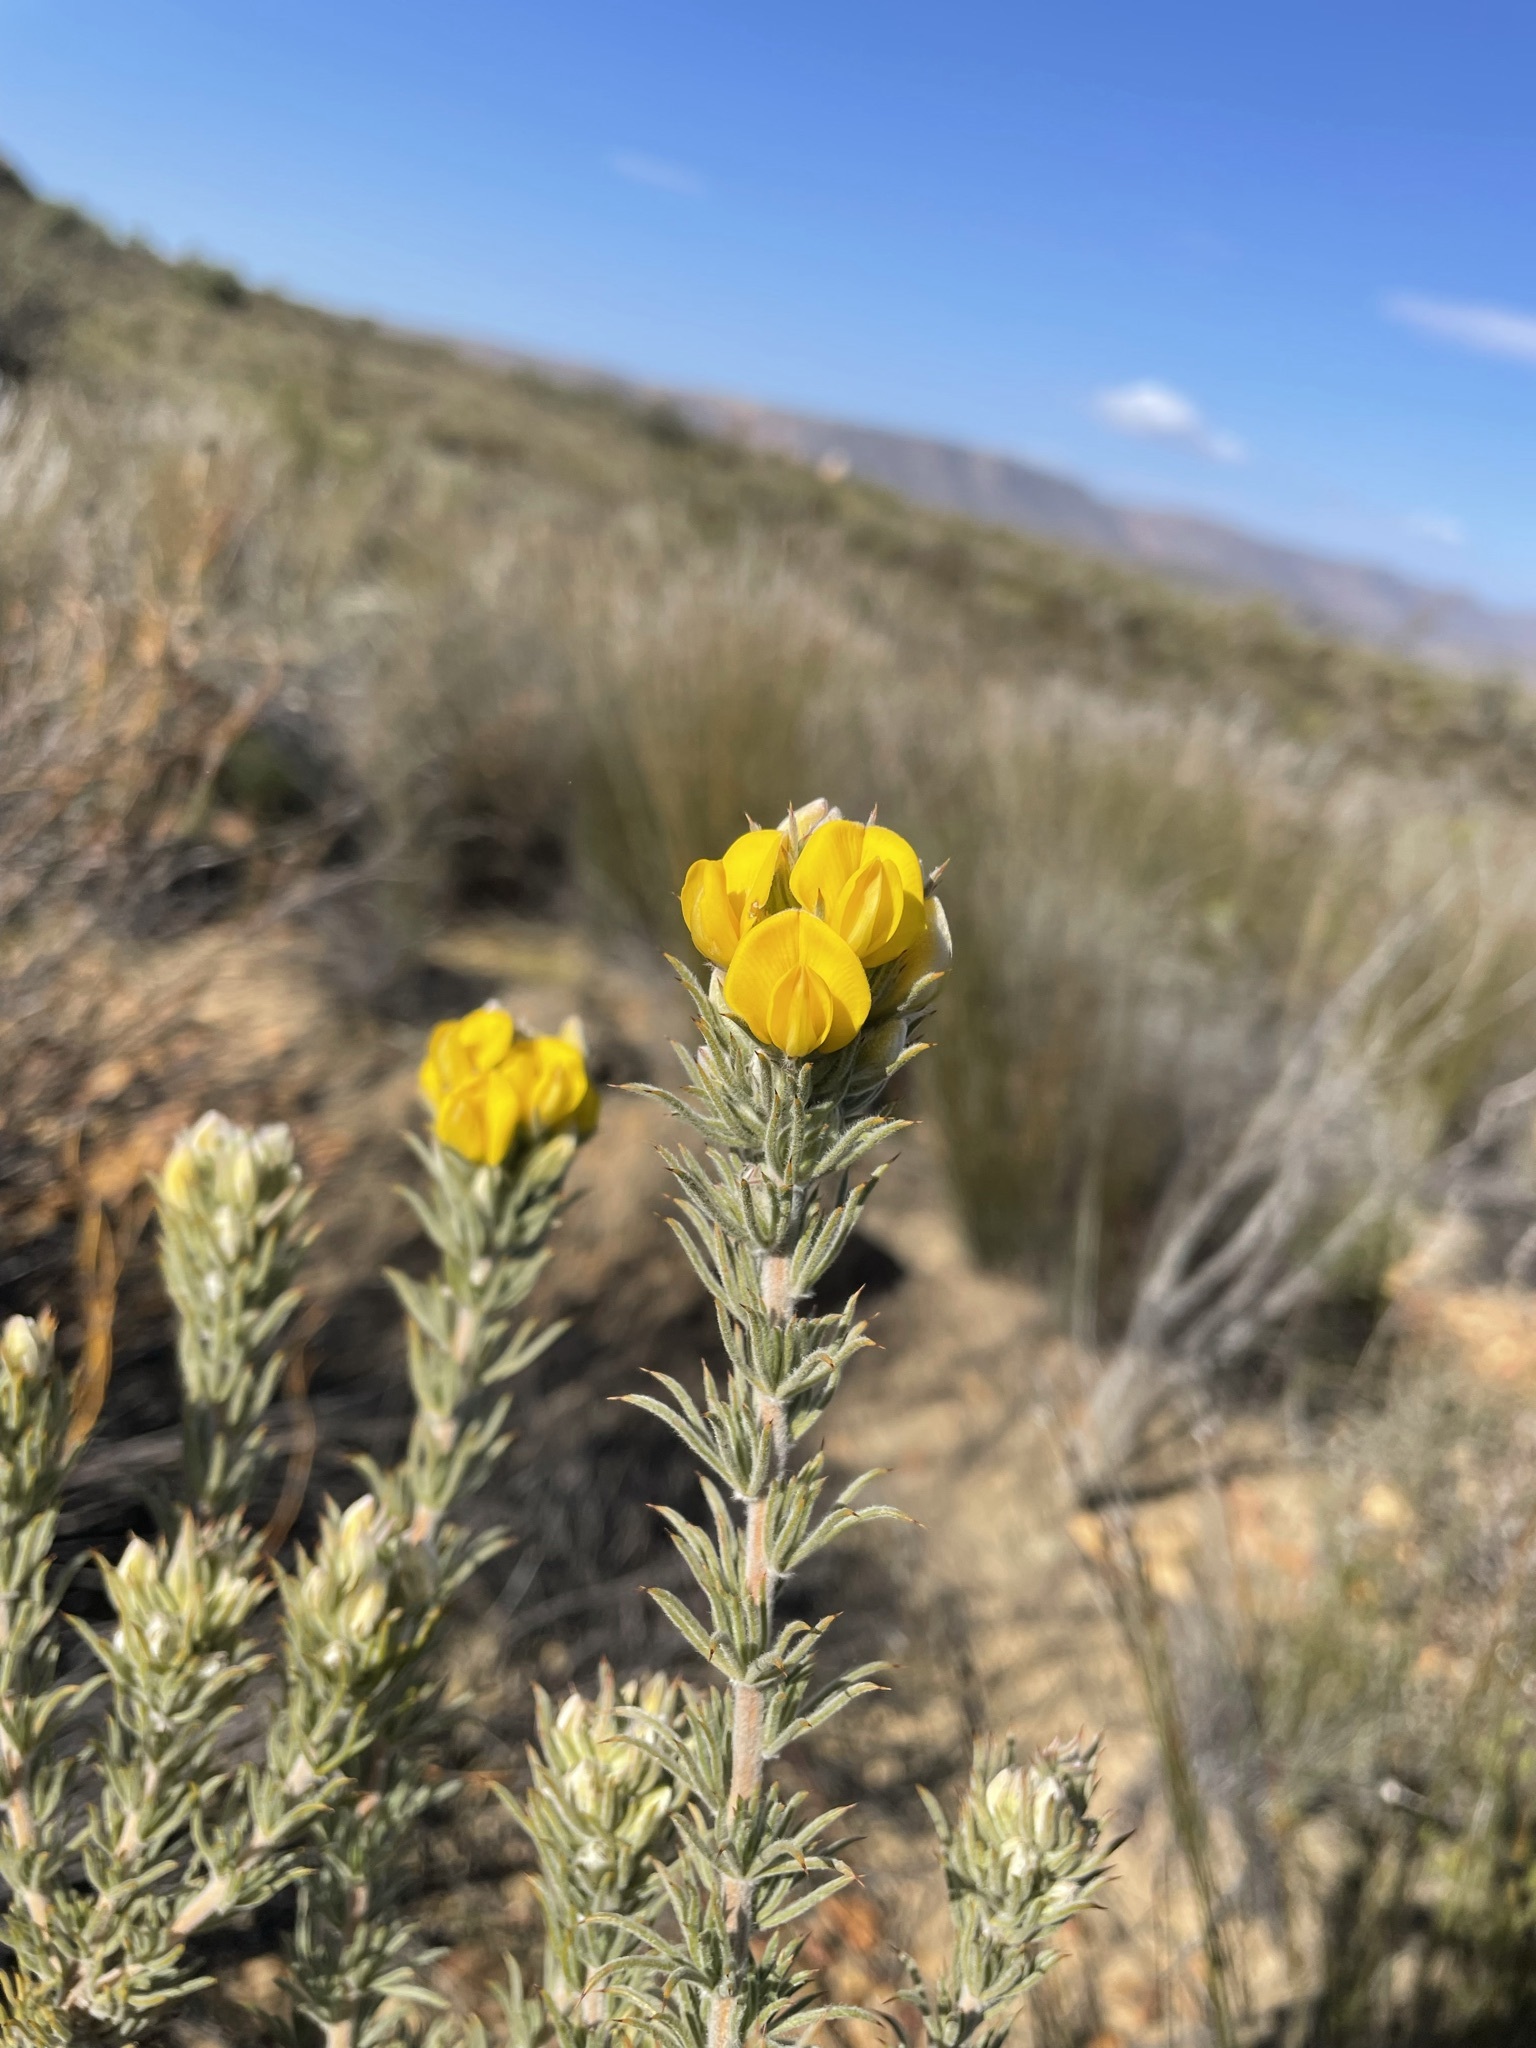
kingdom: Plantae
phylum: Tracheophyta
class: Magnoliopsida
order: Fabales
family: Fabaceae
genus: Aspalathus
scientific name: Aspalathus shawii
